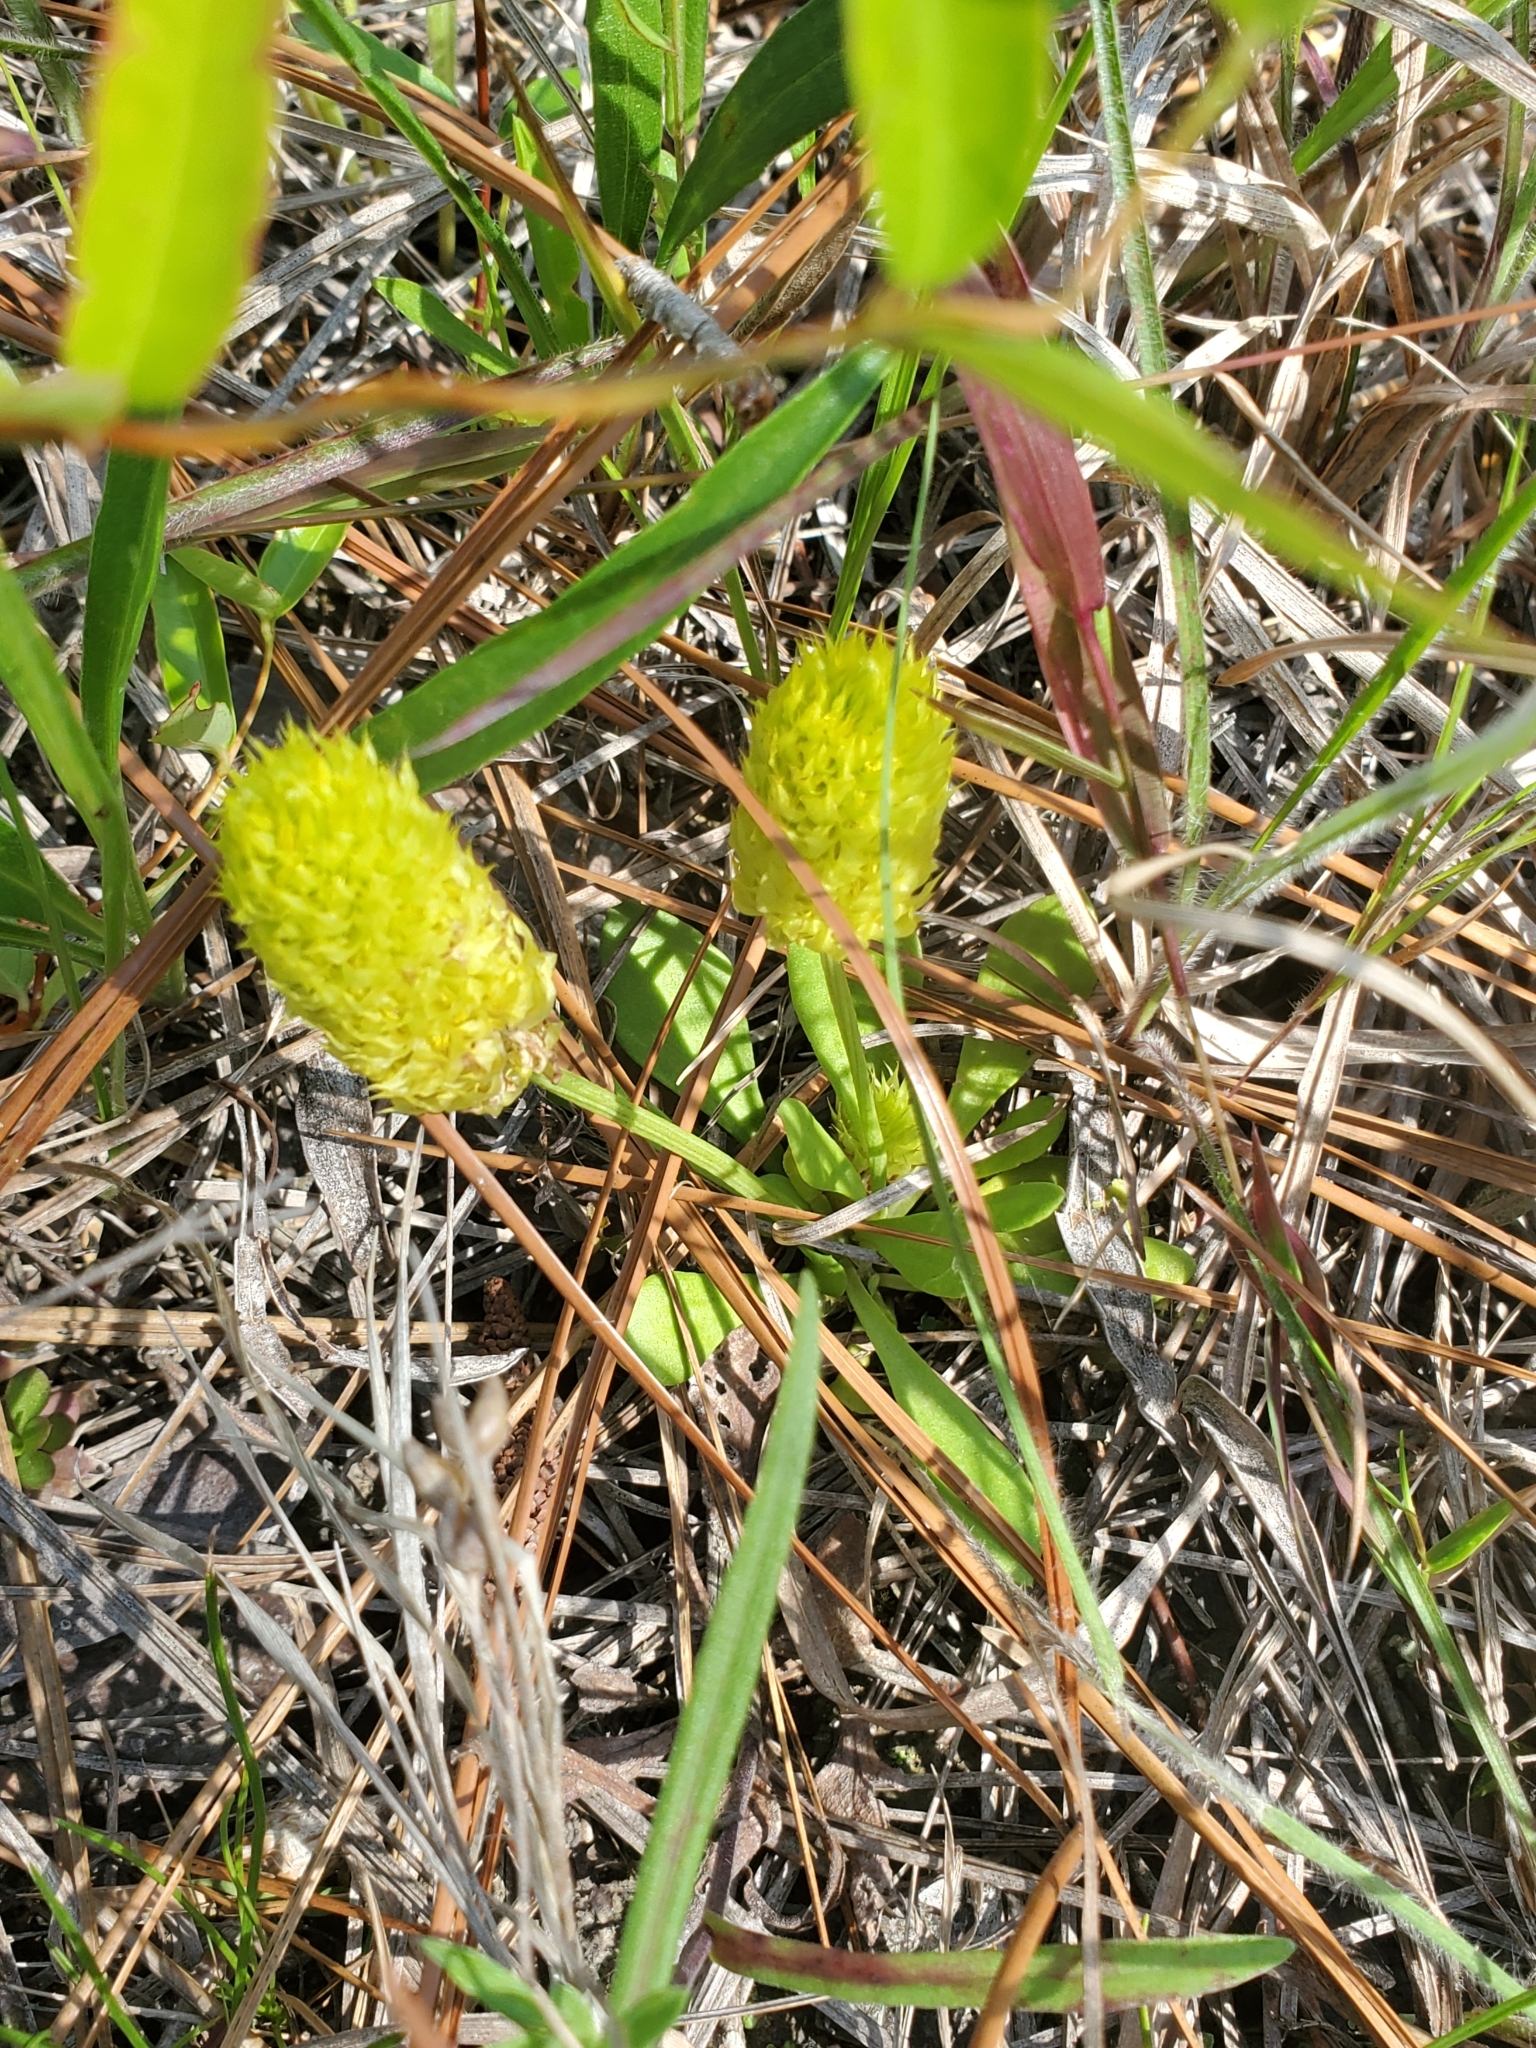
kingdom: Plantae
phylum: Tracheophyta
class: Magnoliopsida
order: Fabales
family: Polygalaceae
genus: Polygala
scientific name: Polygala nana
